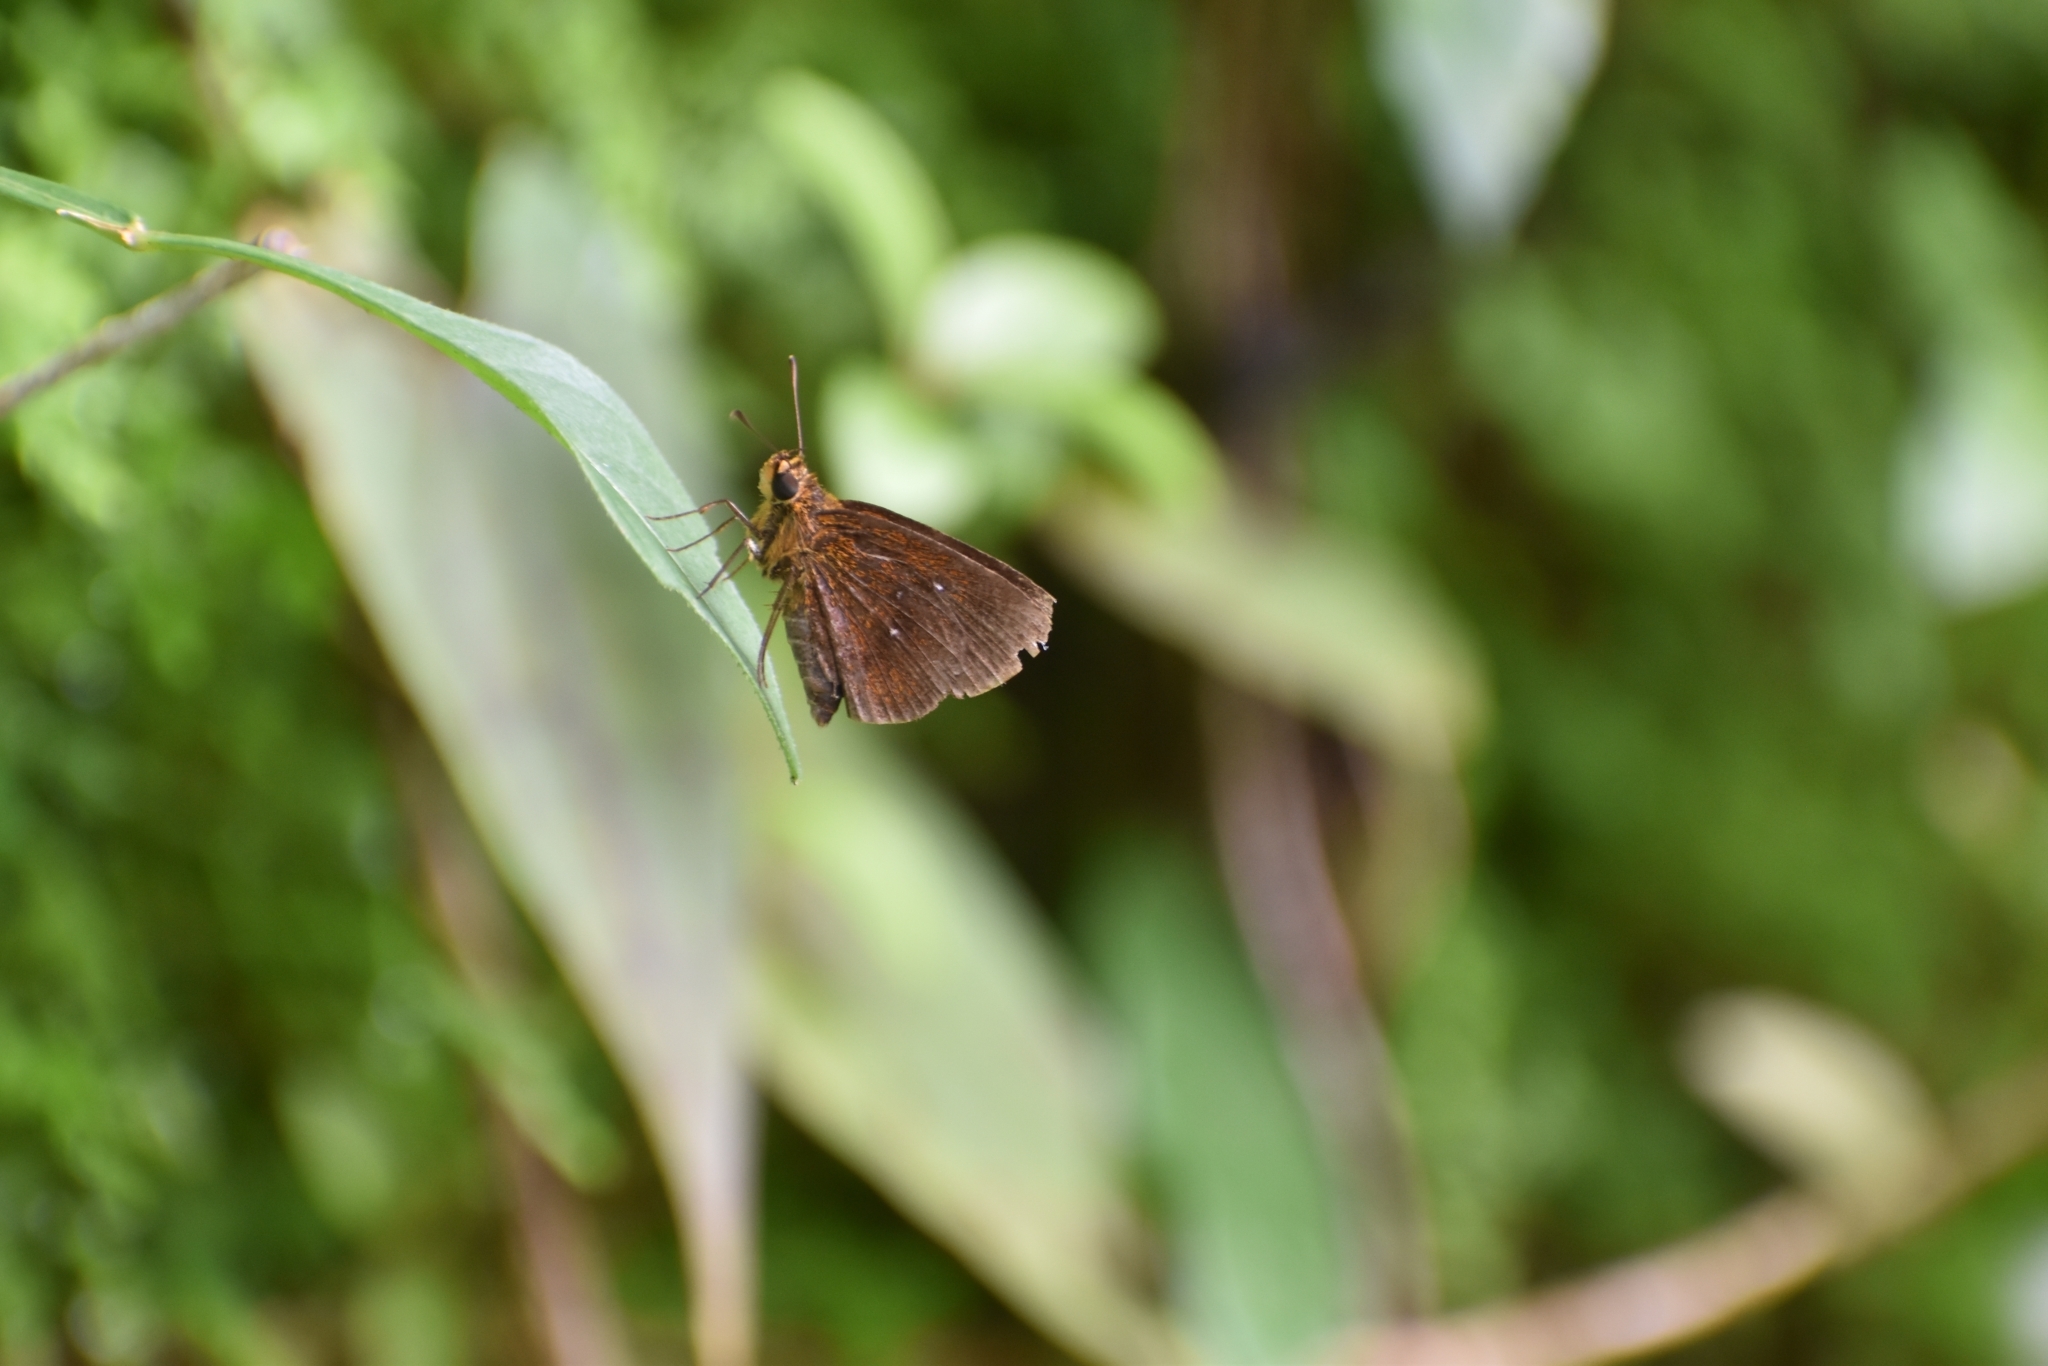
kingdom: Animalia
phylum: Arthropoda
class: Insecta
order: Lepidoptera
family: Hesperiidae
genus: Iambrix
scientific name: Iambrix salsala
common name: Chestnut bob
